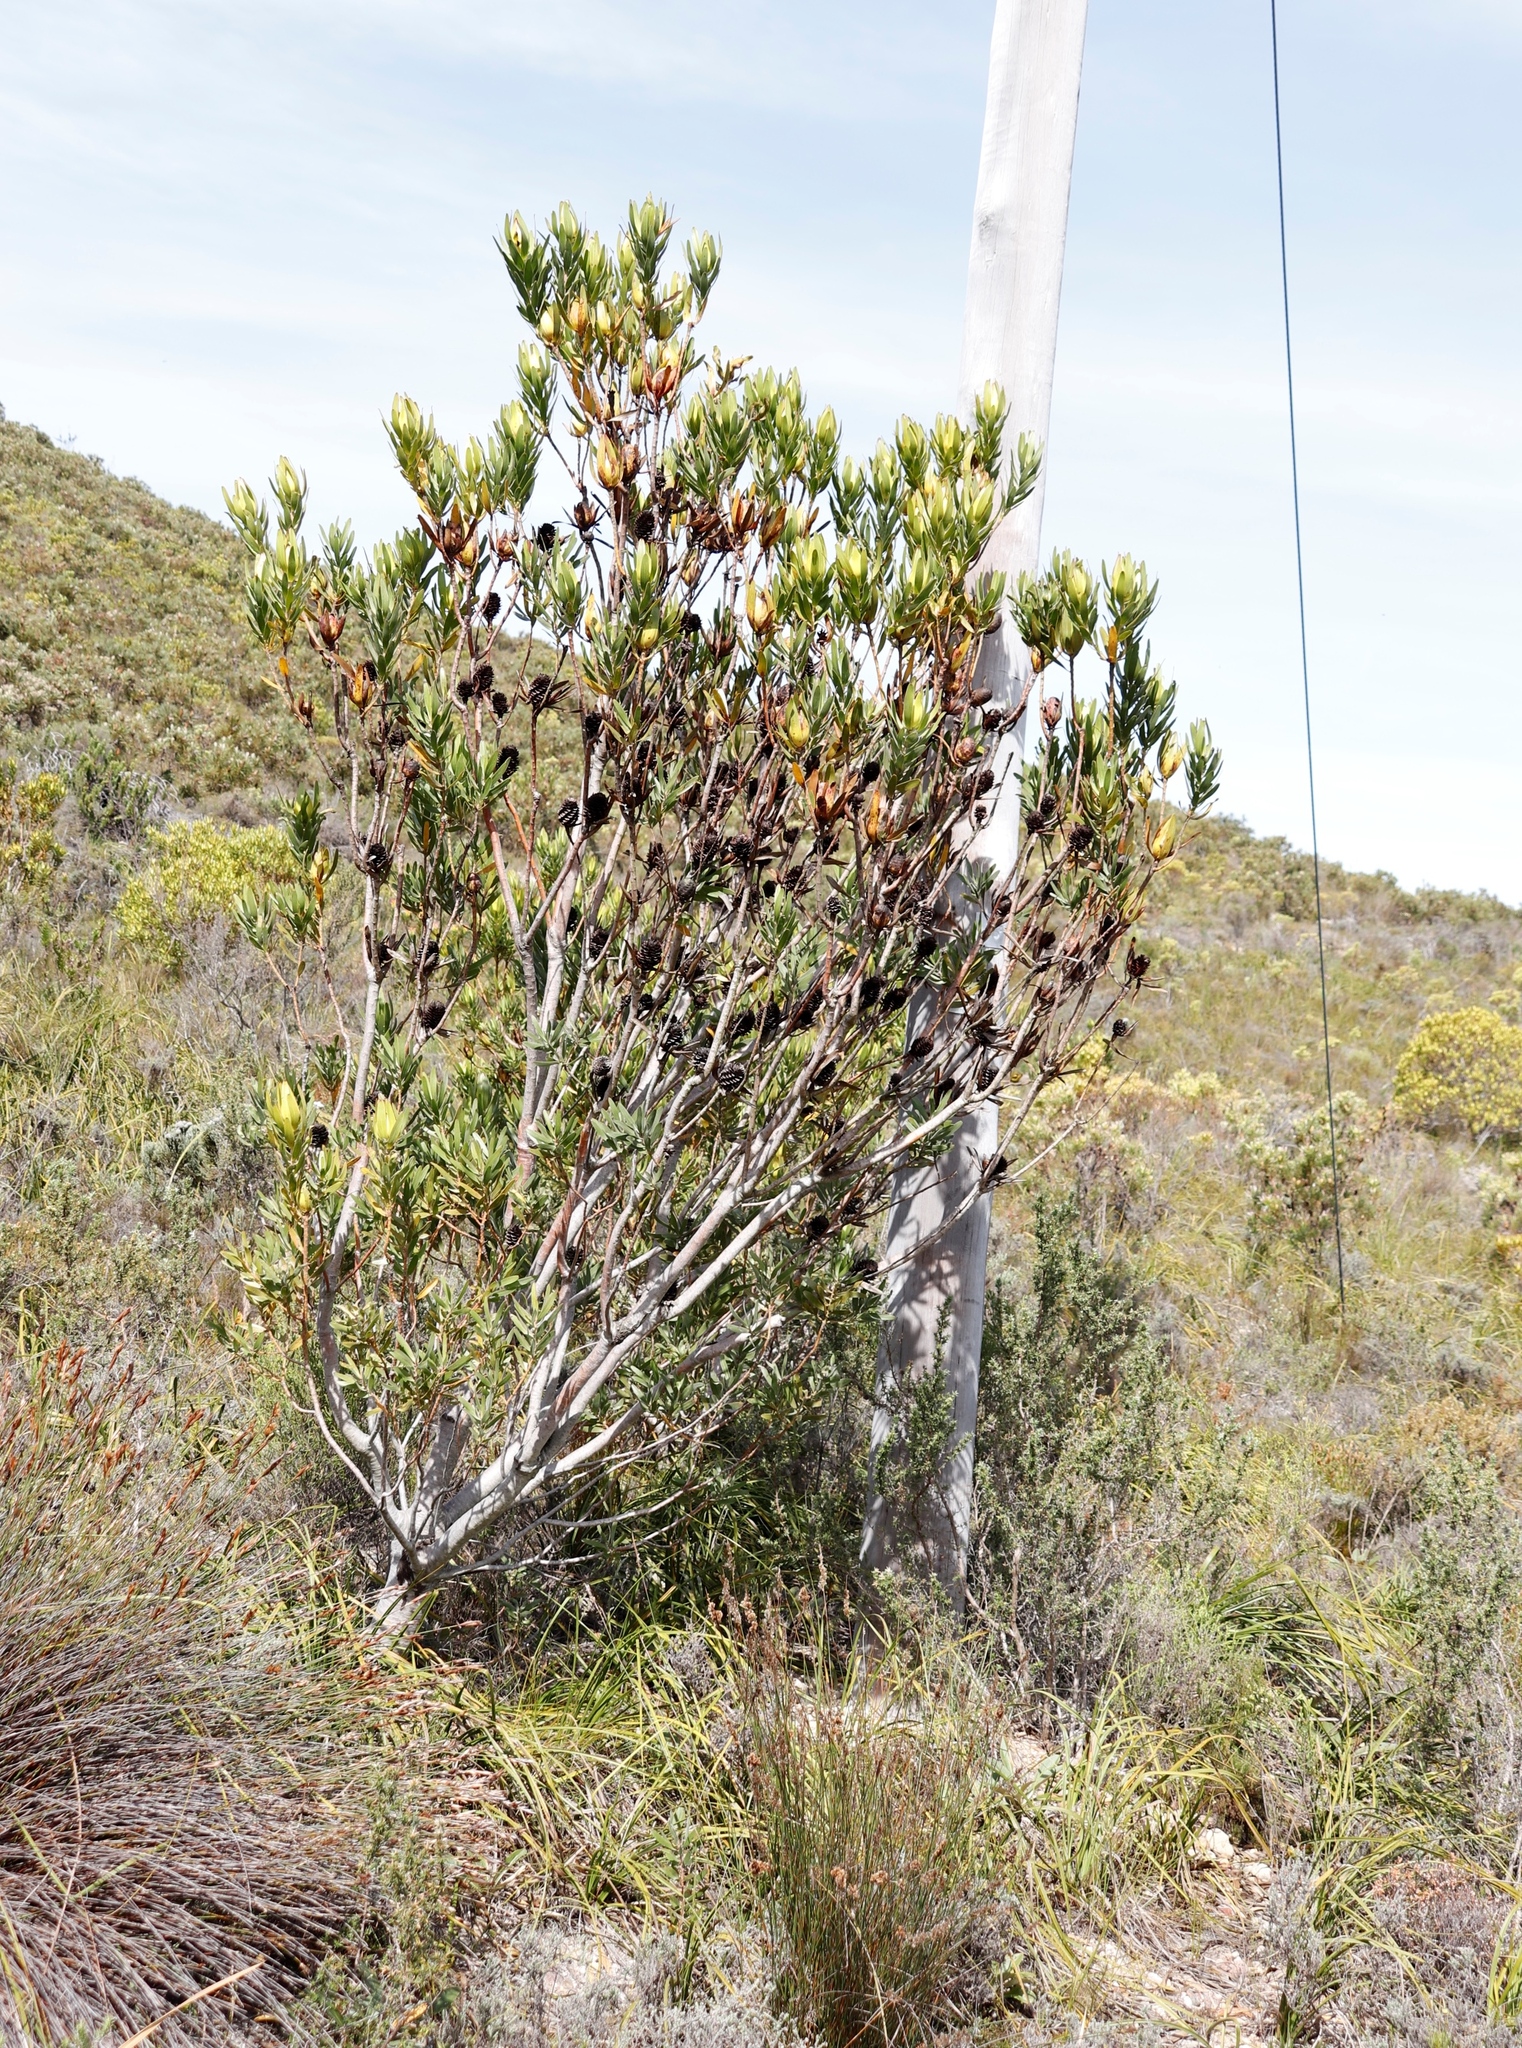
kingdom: Plantae
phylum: Tracheophyta
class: Magnoliopsida
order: Proteales
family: Proteaceae
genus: Leucadendron
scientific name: Leucadendron laureolum
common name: Golden sunshinebush
